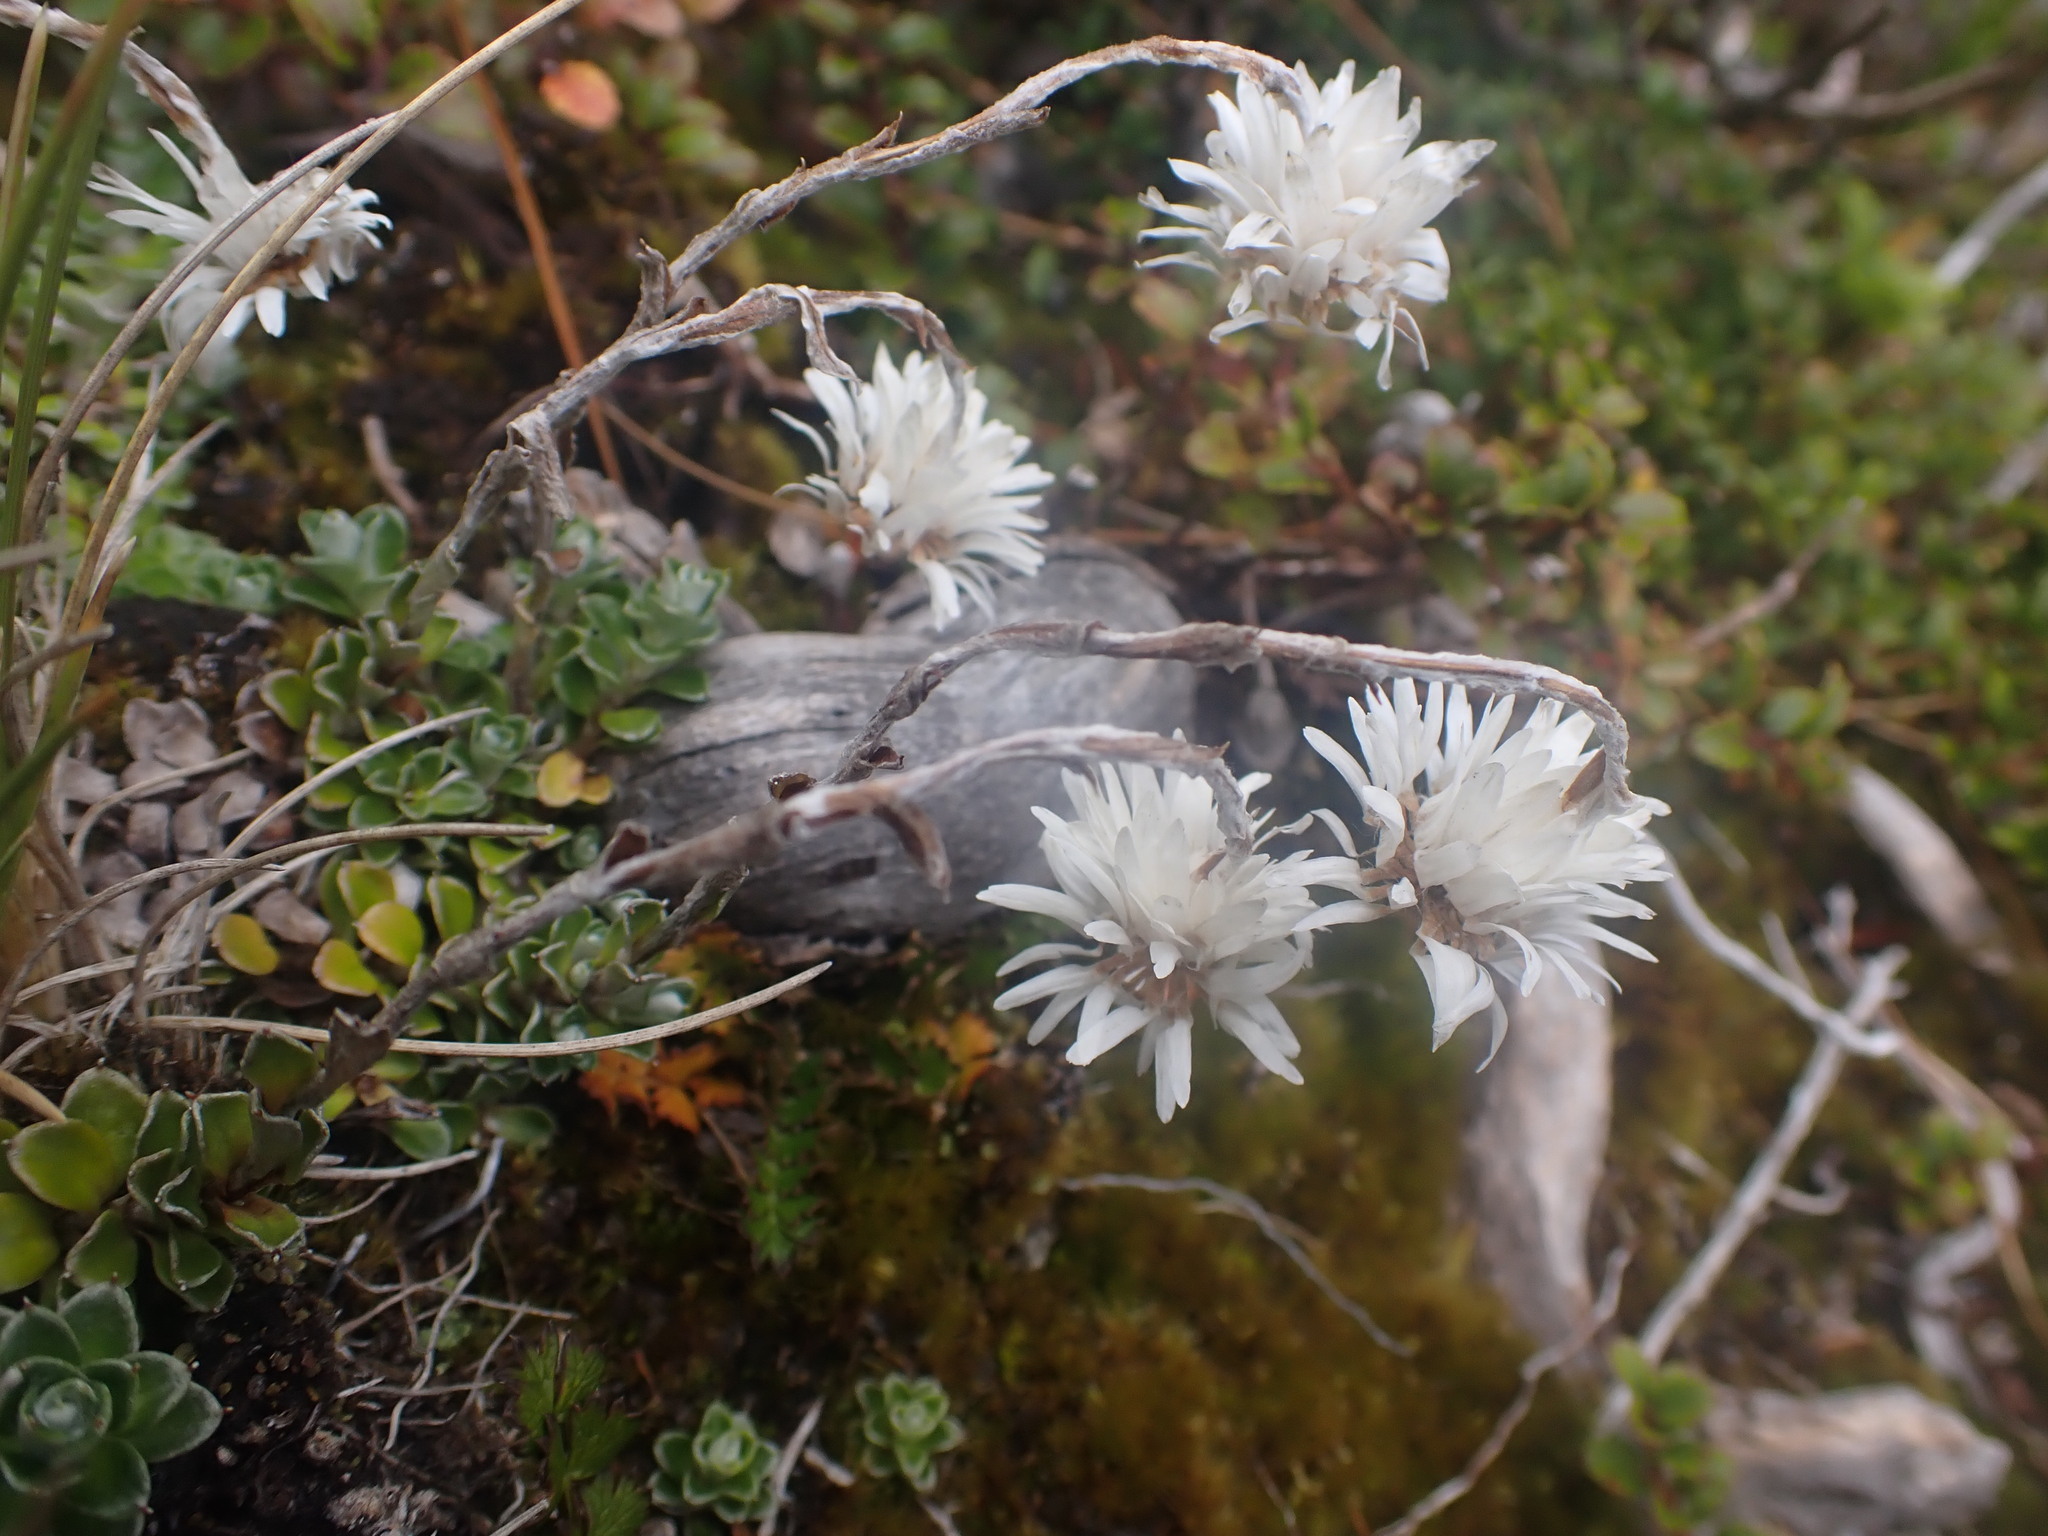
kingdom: Plantae
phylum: Tracheophyta
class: Magnoliopsida
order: Asterales
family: Asteraceae
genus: Anaphalioides
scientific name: Anaphalioides alpina
